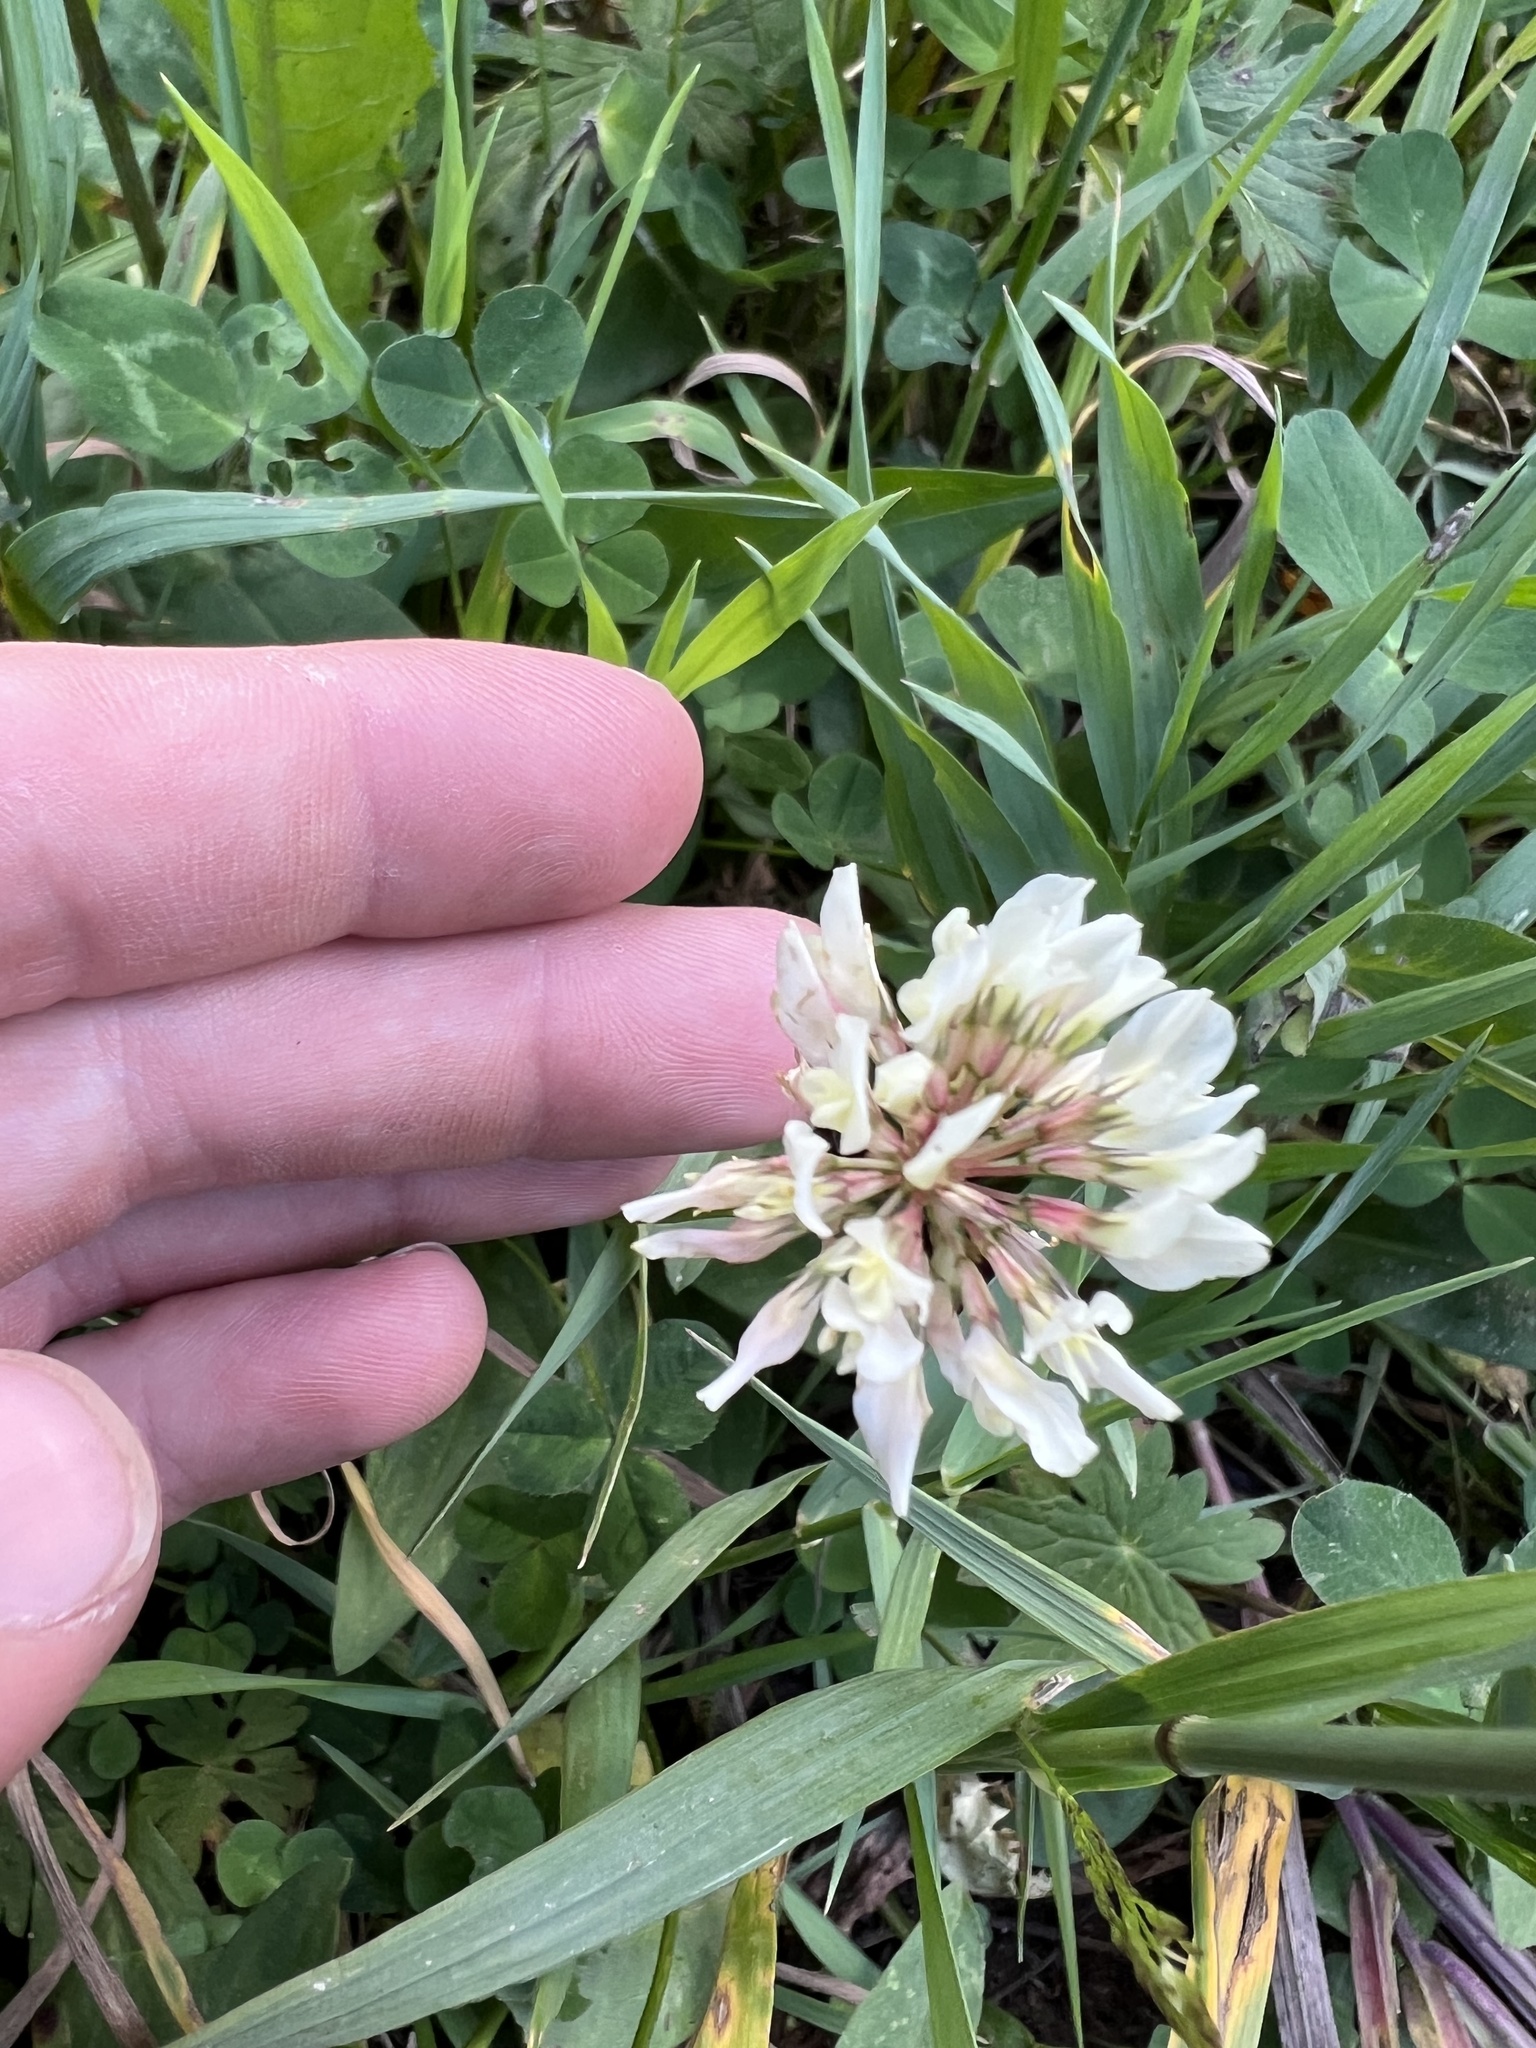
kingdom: Plantae
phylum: Tracheophyta
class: Magnoliopsida
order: Fabales
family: Fabaceae
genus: Trifolium
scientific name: Trifolium repens
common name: White clover
